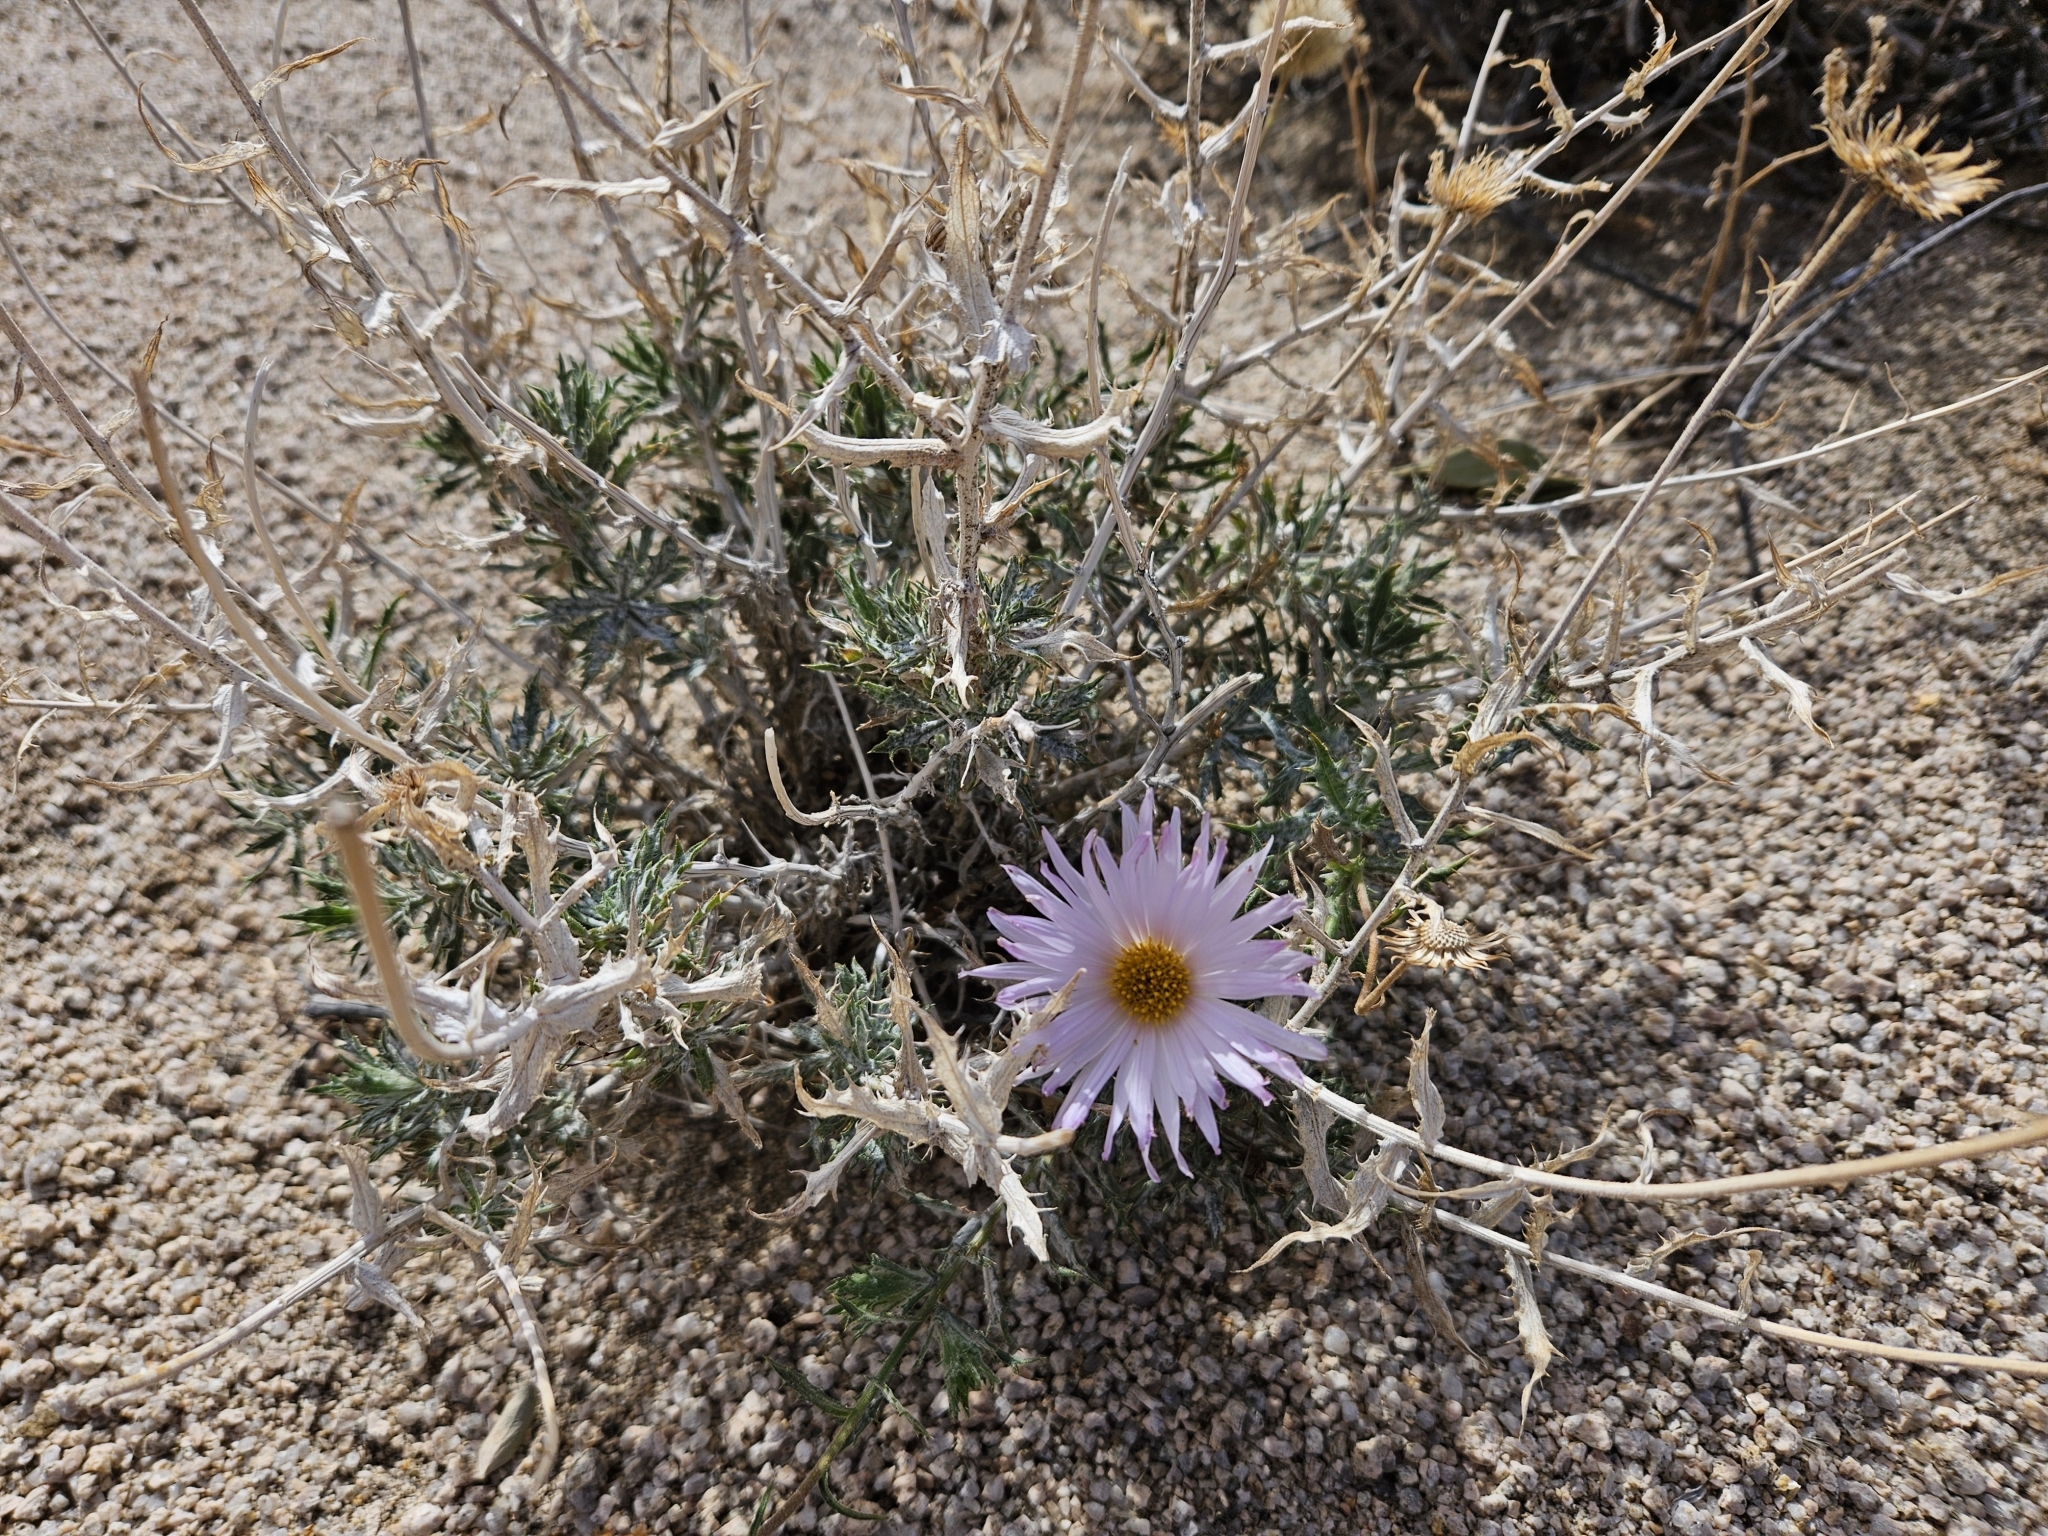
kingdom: Plantae
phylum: Tracheophyta
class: Magnoliopsida
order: Asterales
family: Asteraceae
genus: Xylorhiza
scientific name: Xylorhiza tortifolia
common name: Hurt-leaf woody-aster
